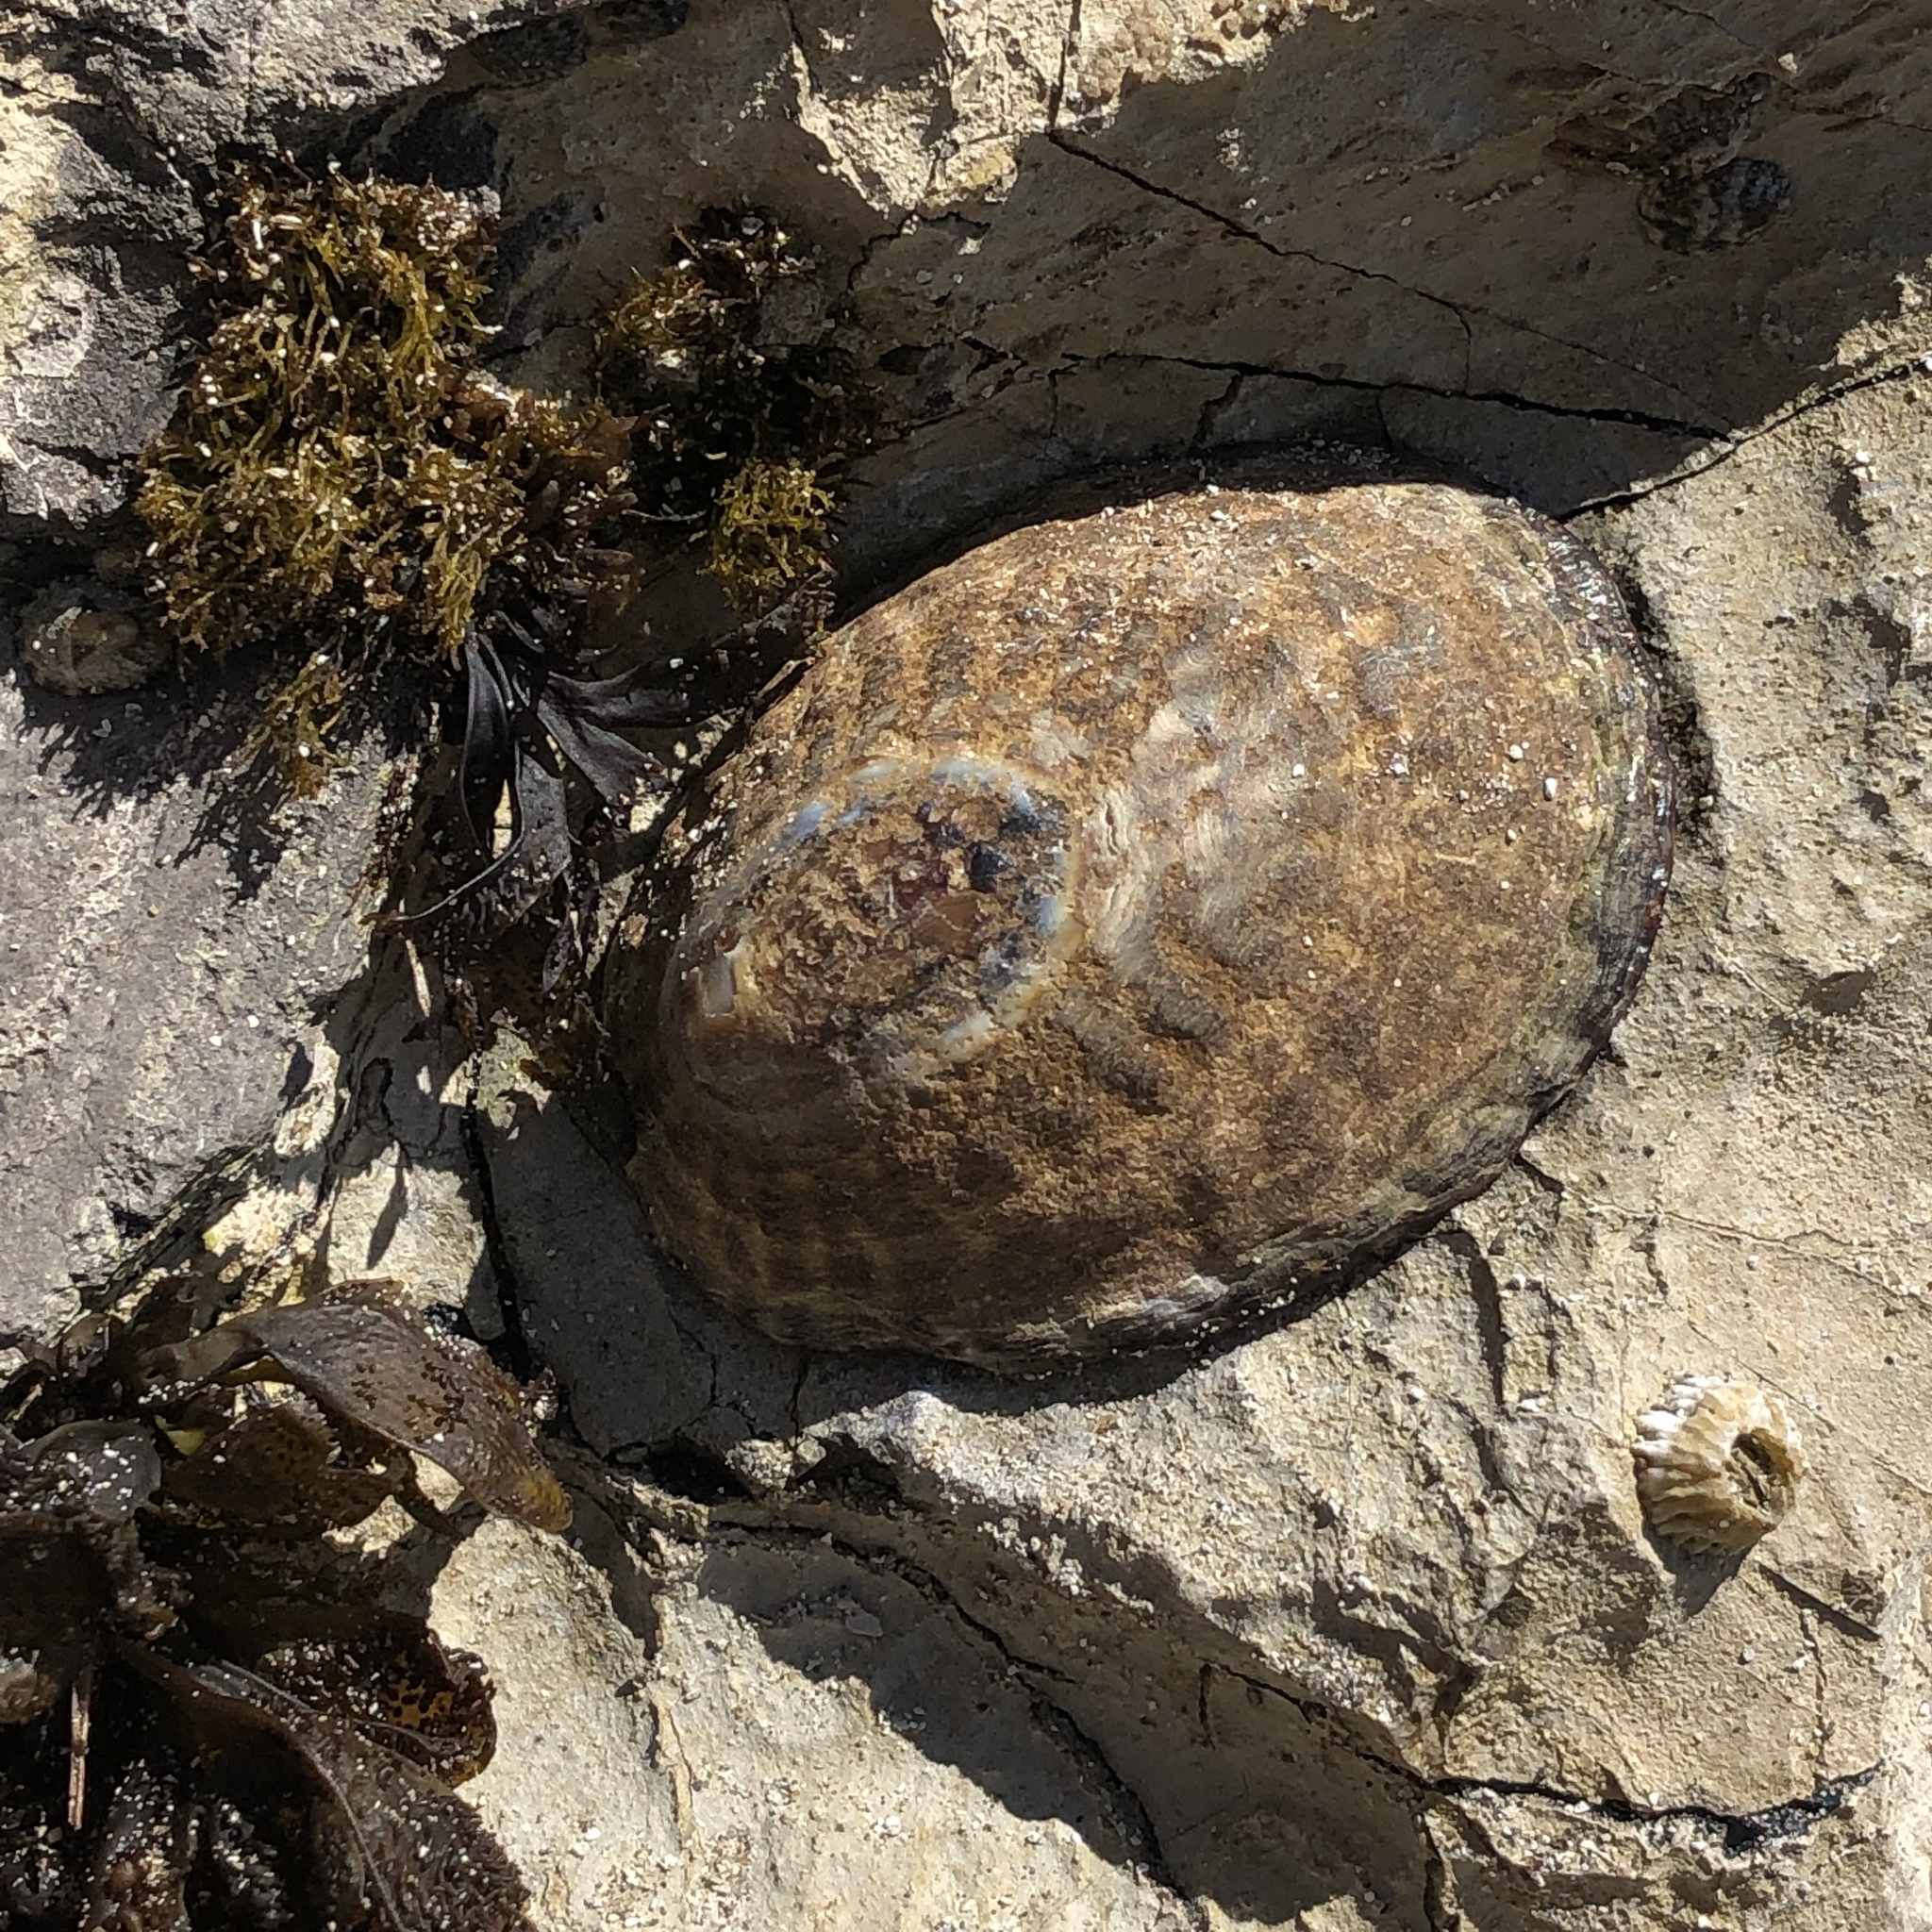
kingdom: Animalia
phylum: Mollusca
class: Gastropoda
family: Lottiidae
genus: Lottia
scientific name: Lottia gigantea
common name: Owl limpet
